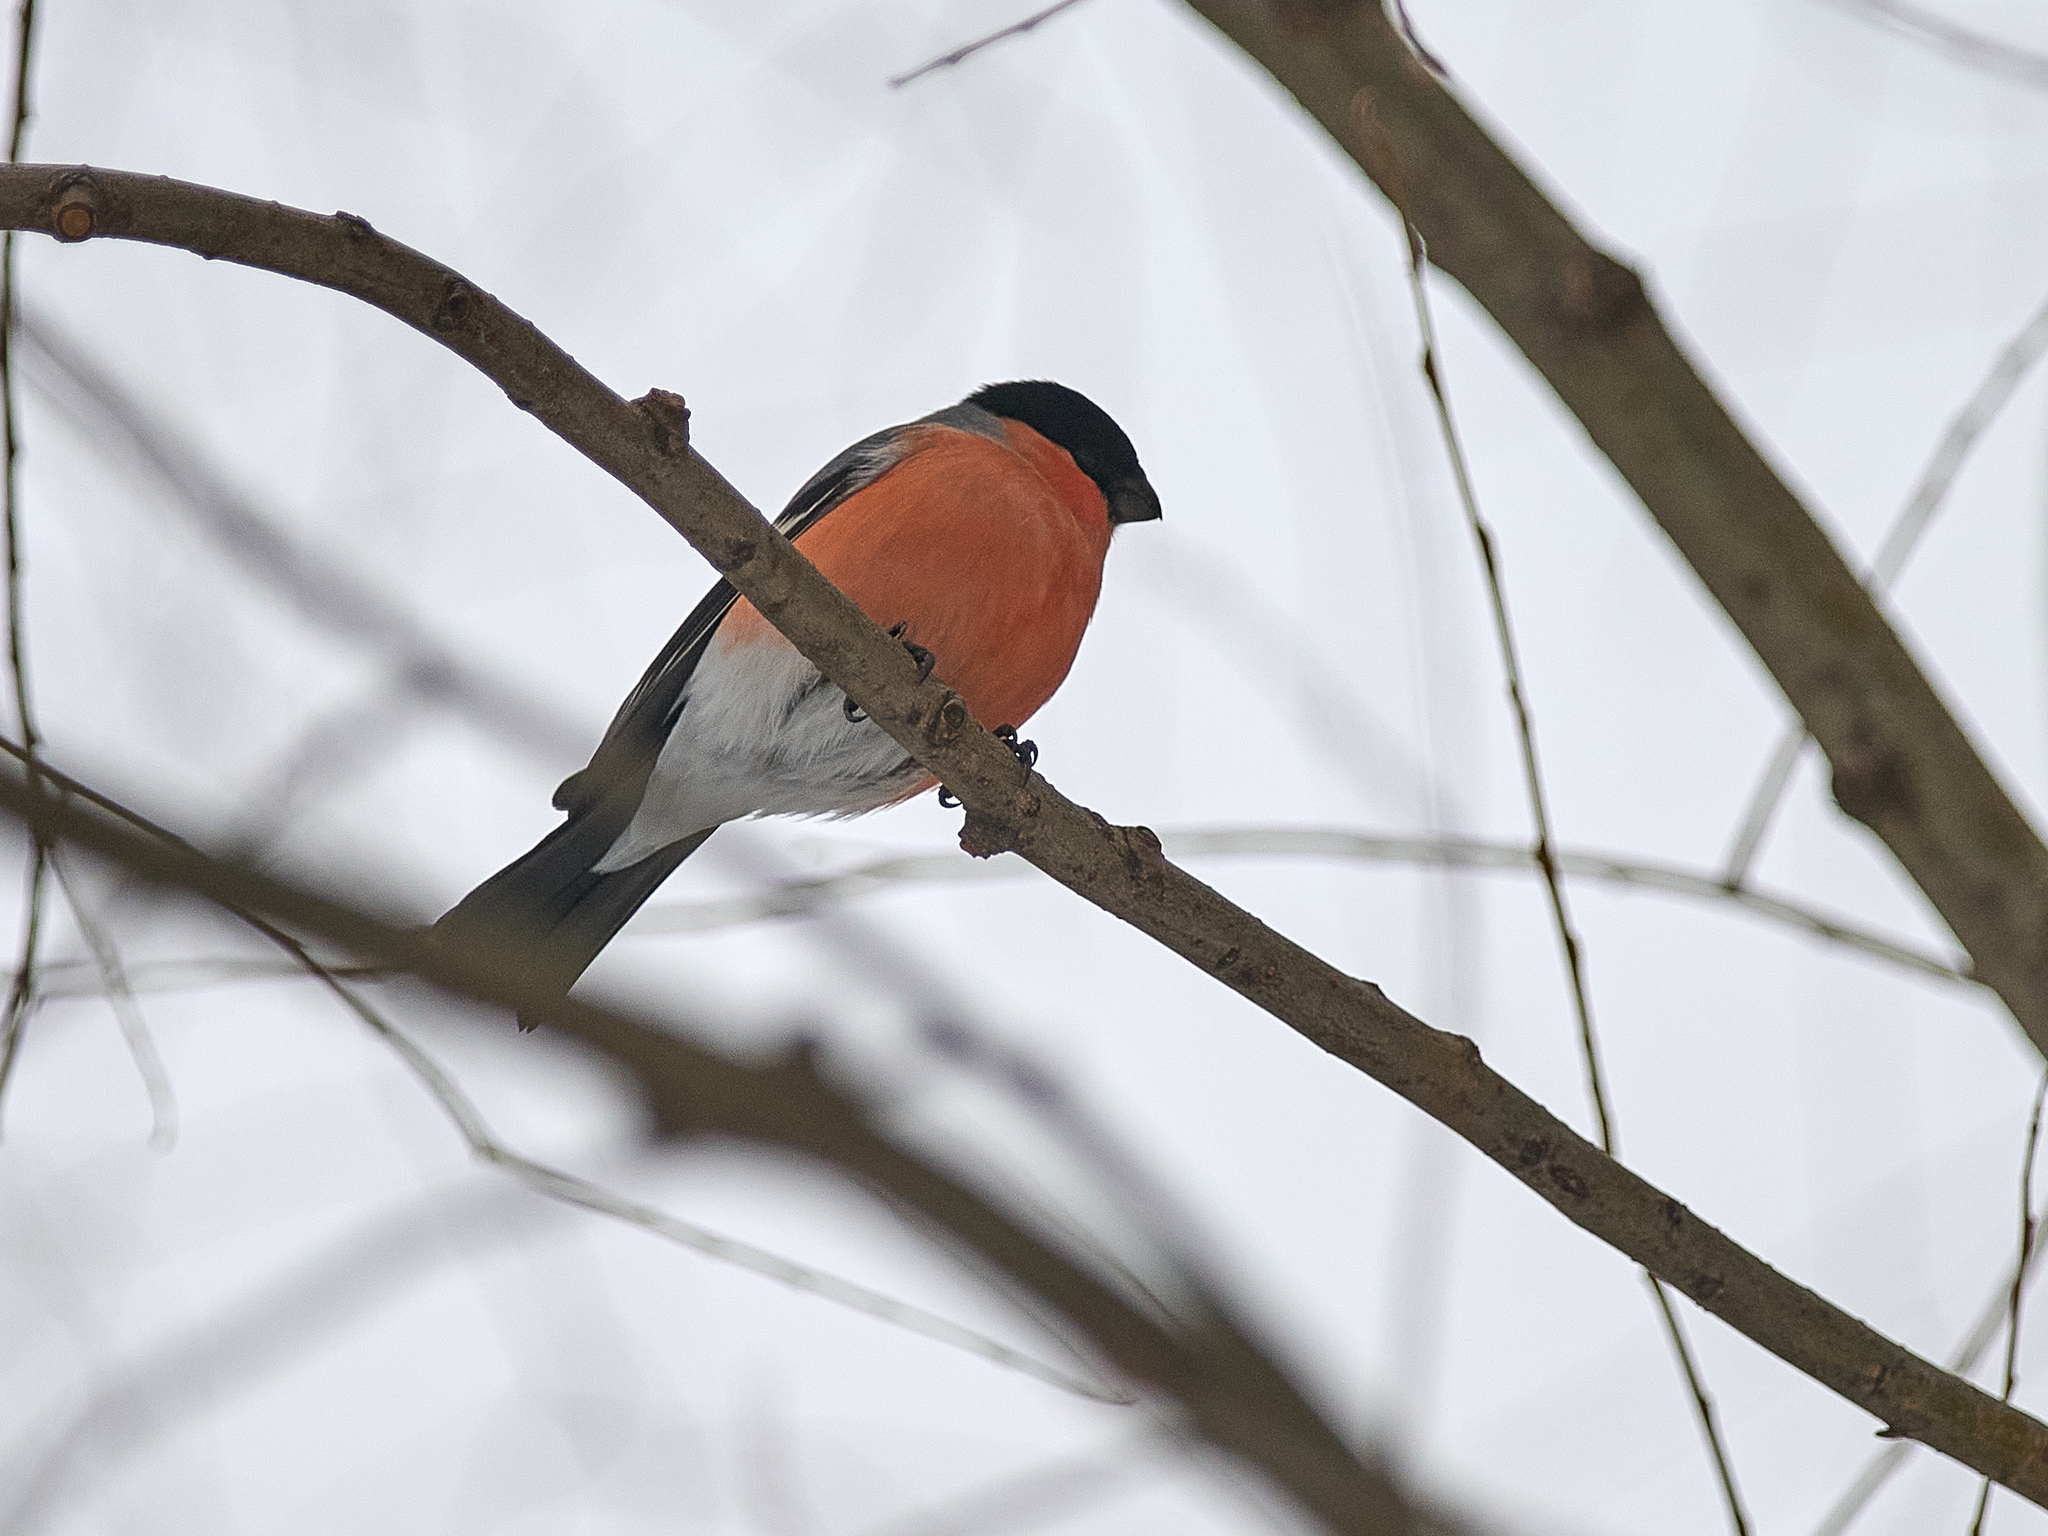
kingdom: Animalia
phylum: Chordata
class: Aves
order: Passeriformes
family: Fringillidae
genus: Pyrrhula
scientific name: Pyrrhula pyrrhula
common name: Eurasian bullfinch
